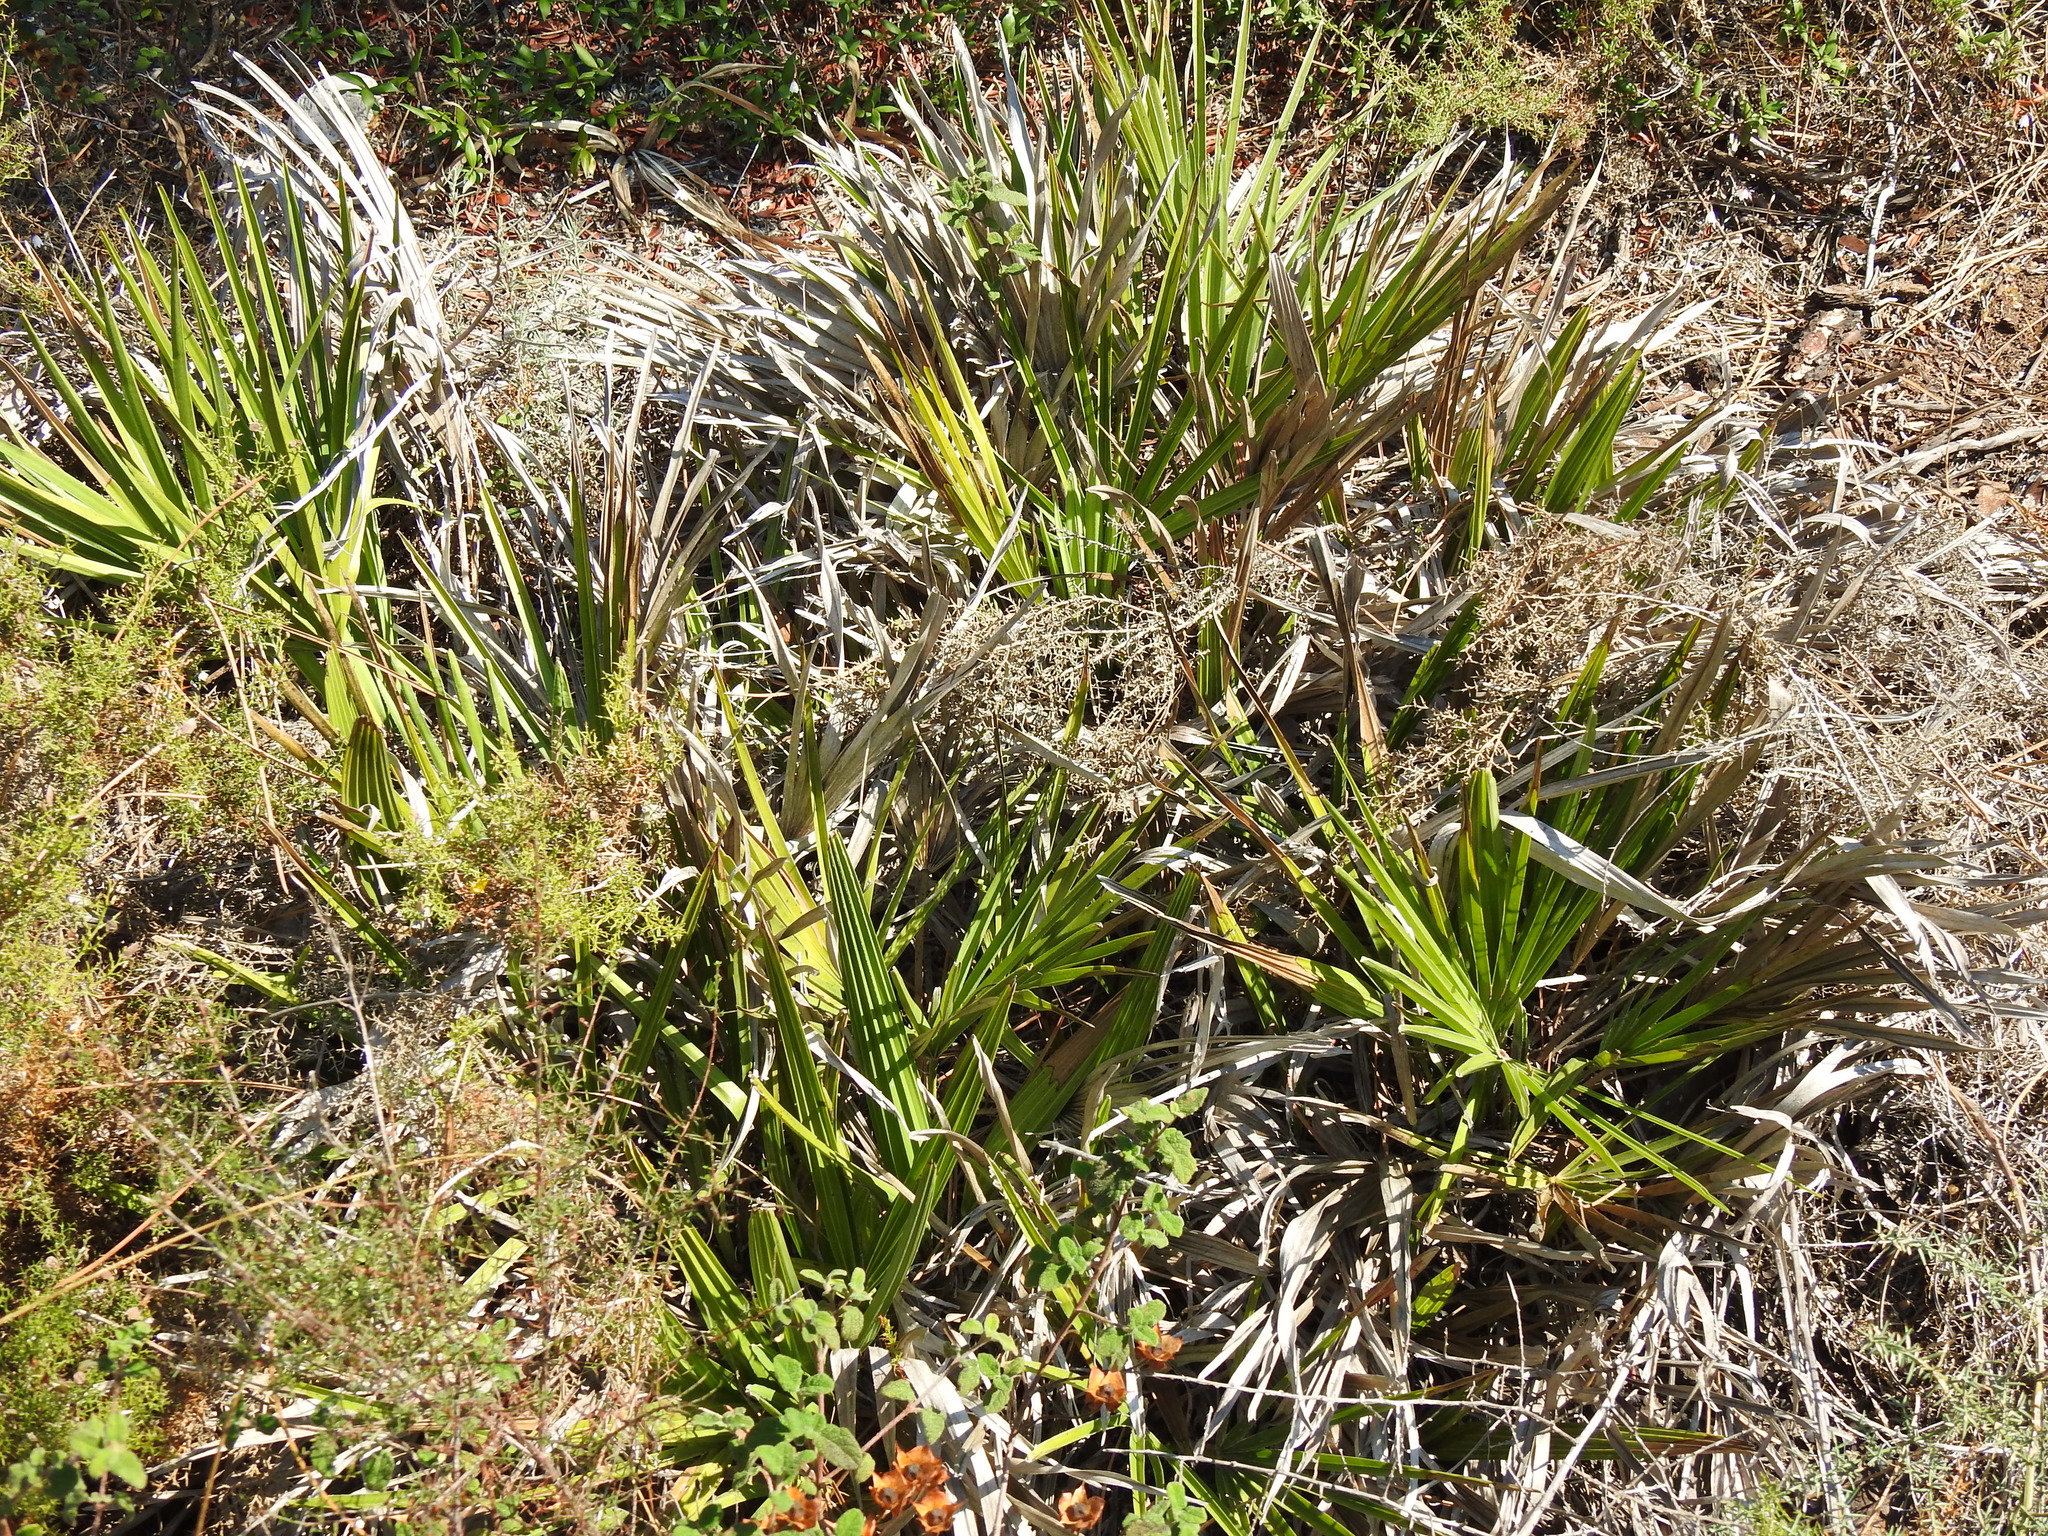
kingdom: Plantae
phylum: Tracheophyta
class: Liliopsida
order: Arecales
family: Arecaceae
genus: Chamaerops
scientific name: Chamaerops humilis
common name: Dwarf fan palm
